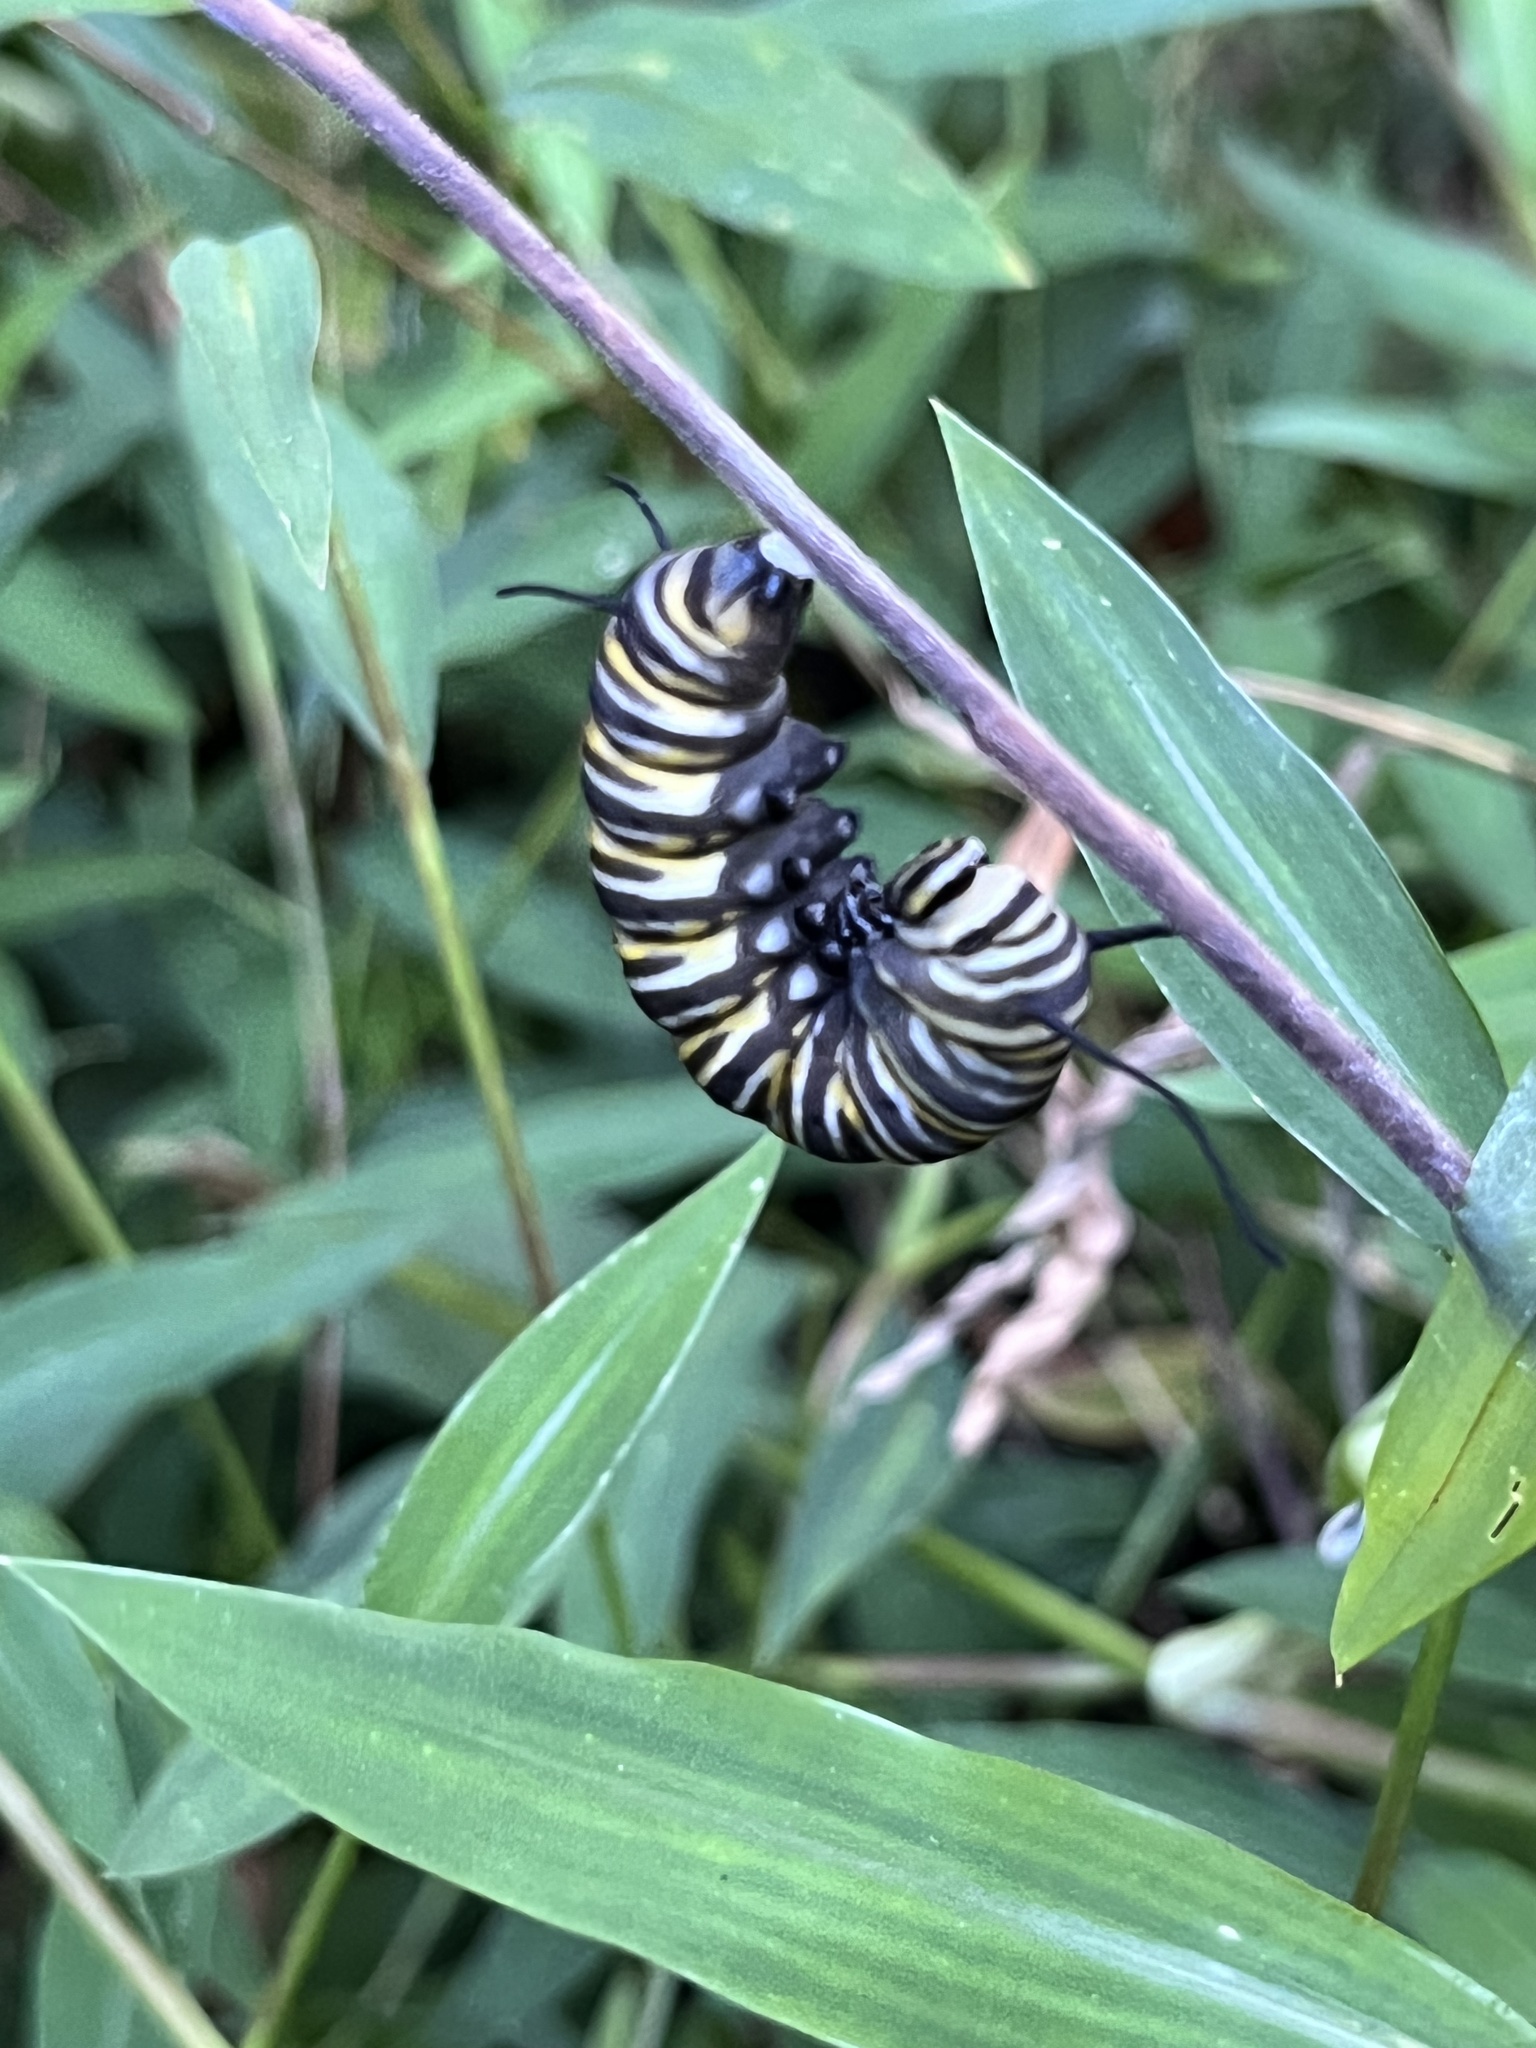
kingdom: Animalia
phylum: Arthropoda
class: Insecta
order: Lepidoptera
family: Nymphalidae
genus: Danaus
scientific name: Danaus plexippus
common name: Monarch
